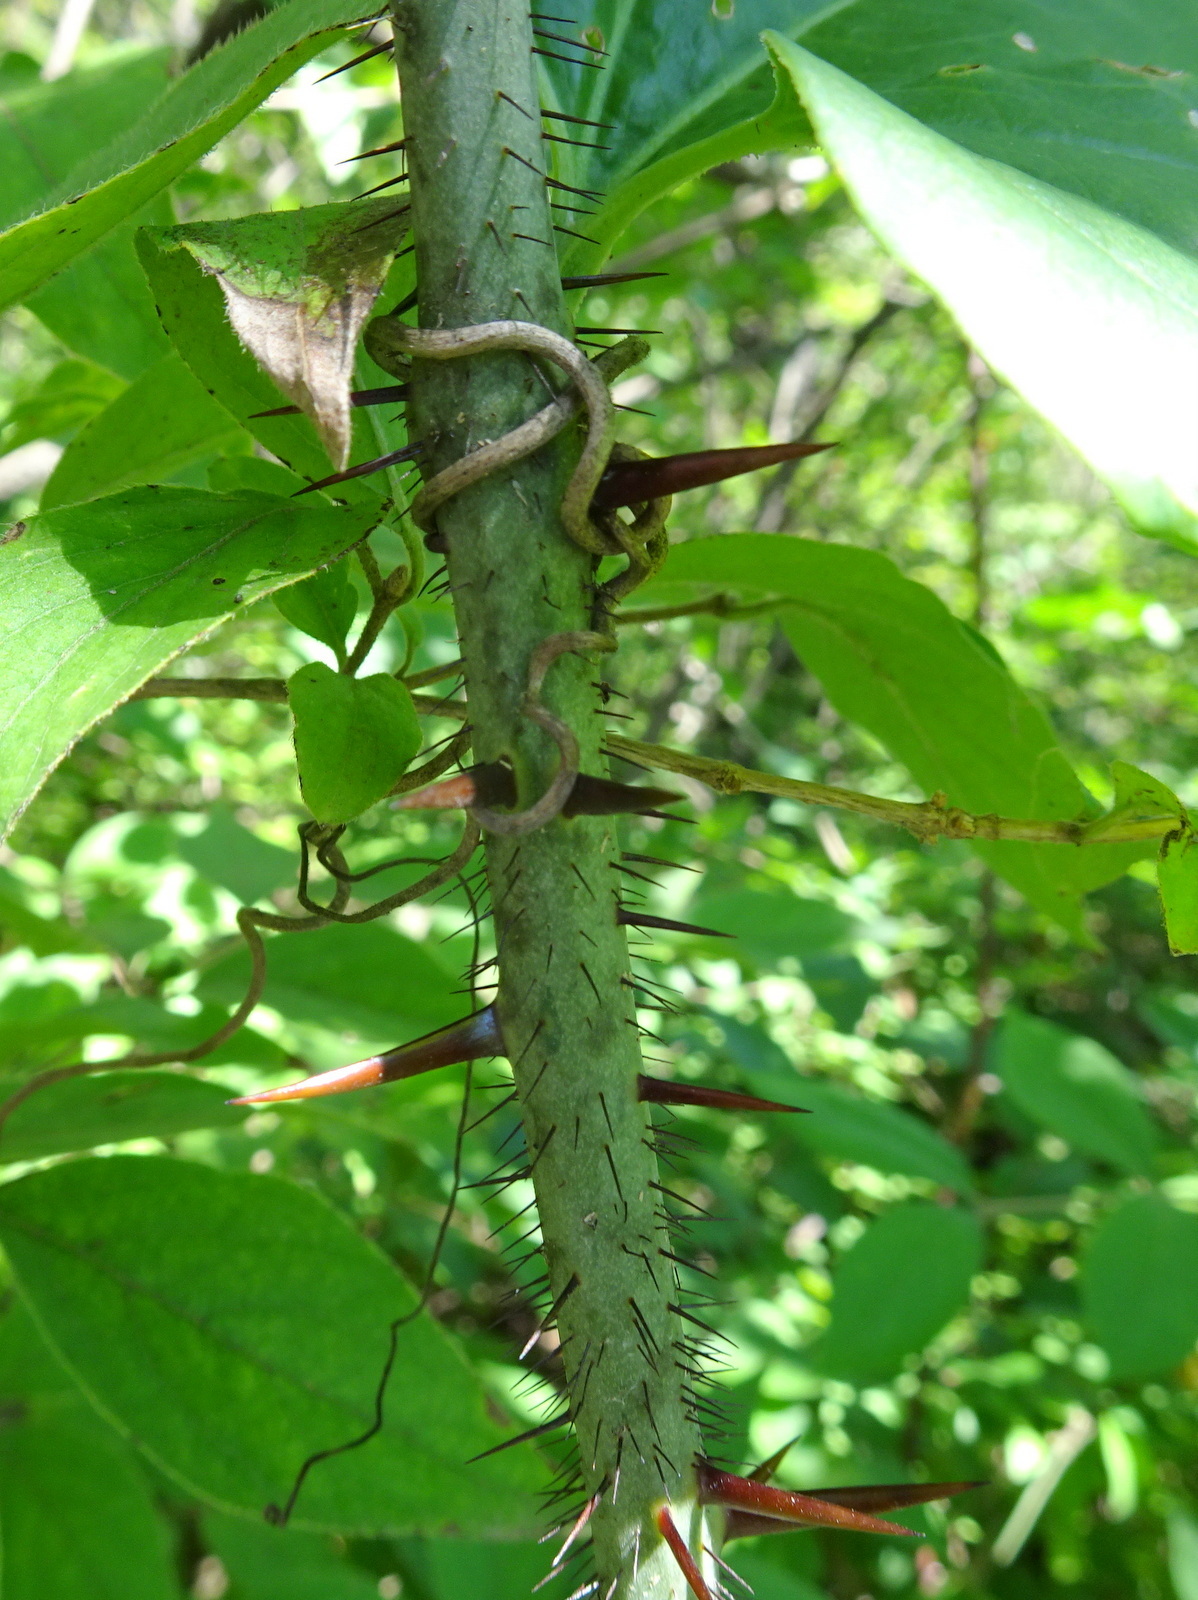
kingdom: Plantae
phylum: Tracheophyta
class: Liliopsida
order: Liliales
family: Smilacaceae
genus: Smilax
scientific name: Smilax tamnoides
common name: Hellfetter
